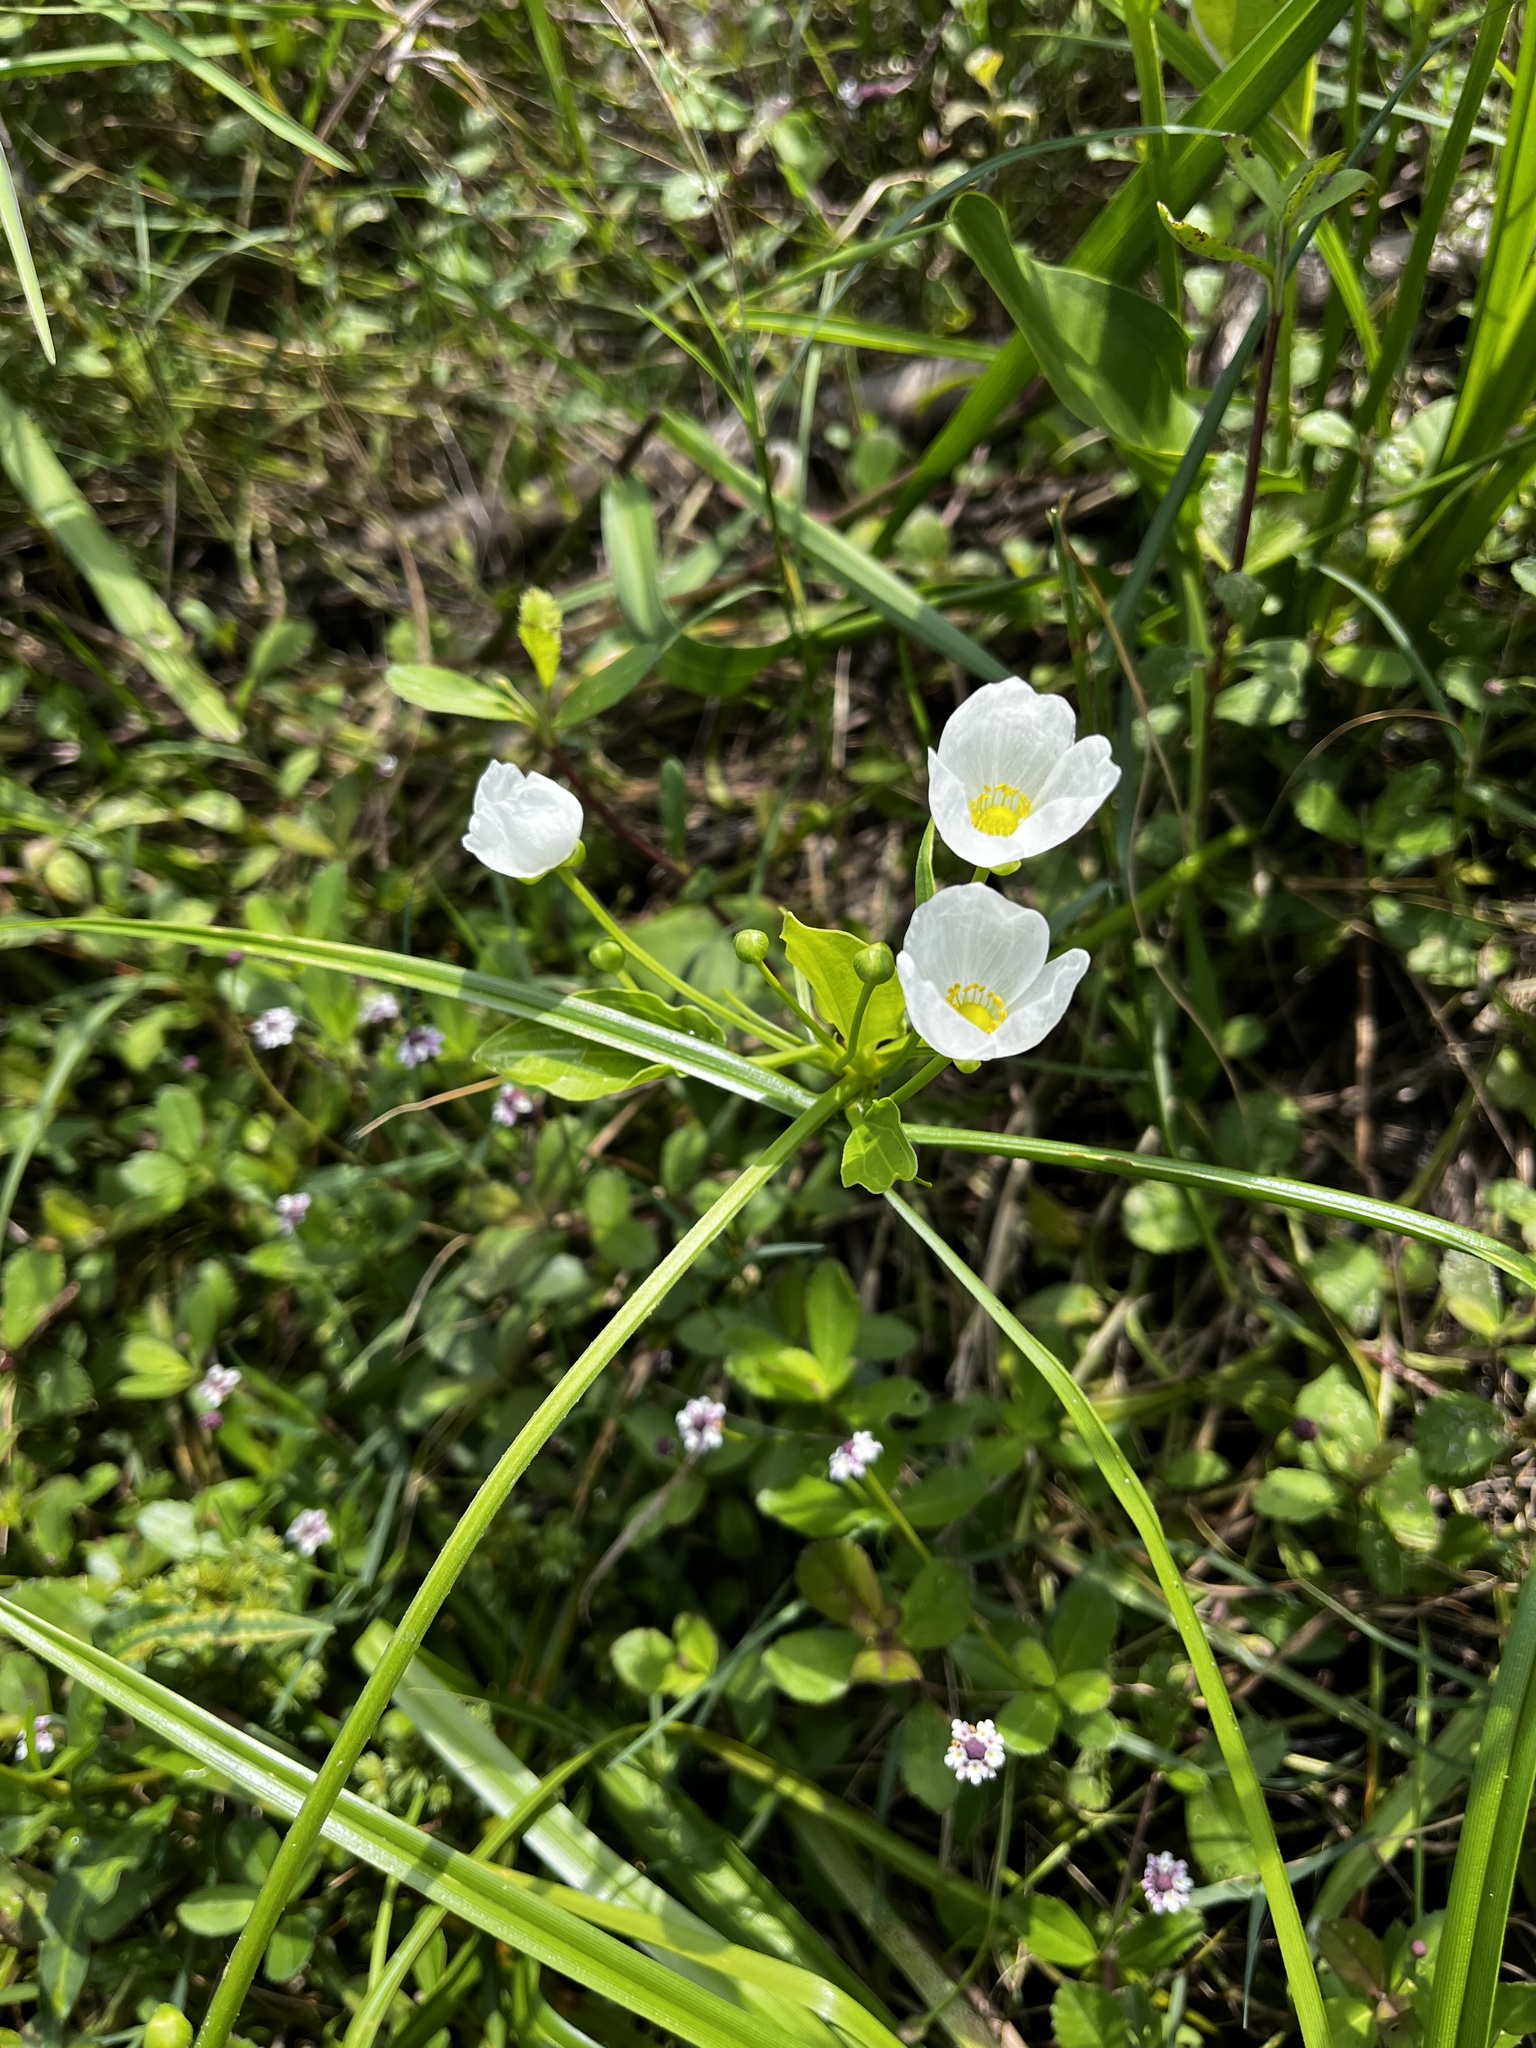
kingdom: Plantae
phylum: Tracheophyta
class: Liliopsida
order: Alismatales
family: Alismataceae
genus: Aquarius
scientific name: Aquarius cordifolius
